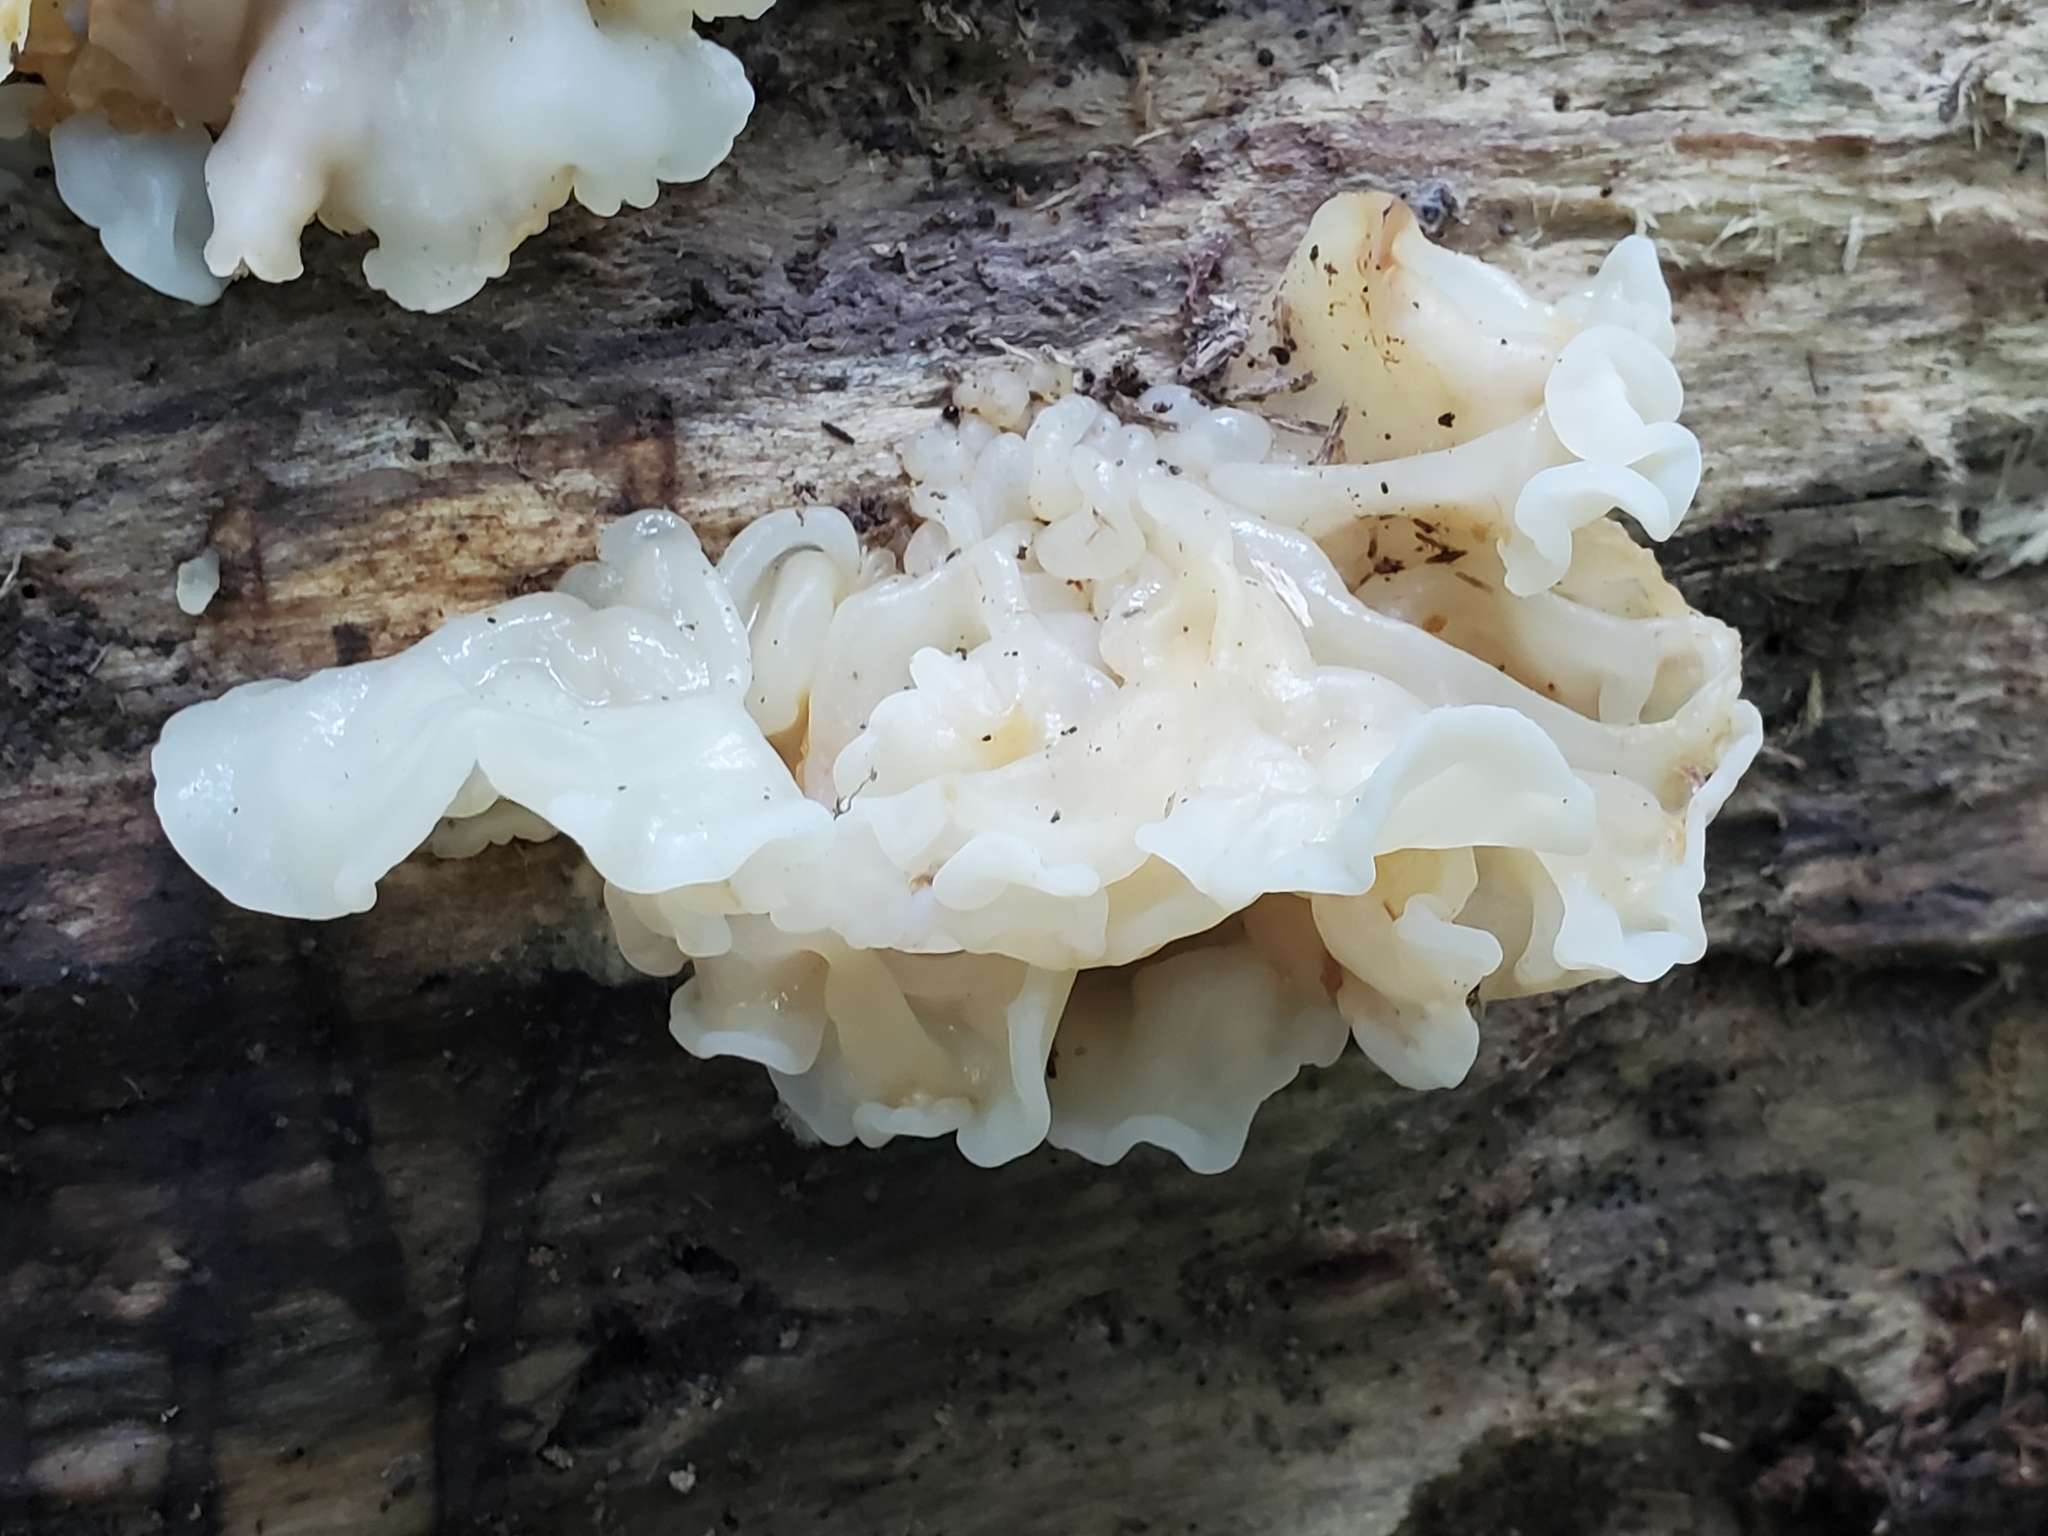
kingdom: Fungi
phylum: Basidiomycota
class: Agaricomycetes
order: Auriculariales
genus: Ductifera
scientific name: Ductifera pululahuana
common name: White jelly fungus
